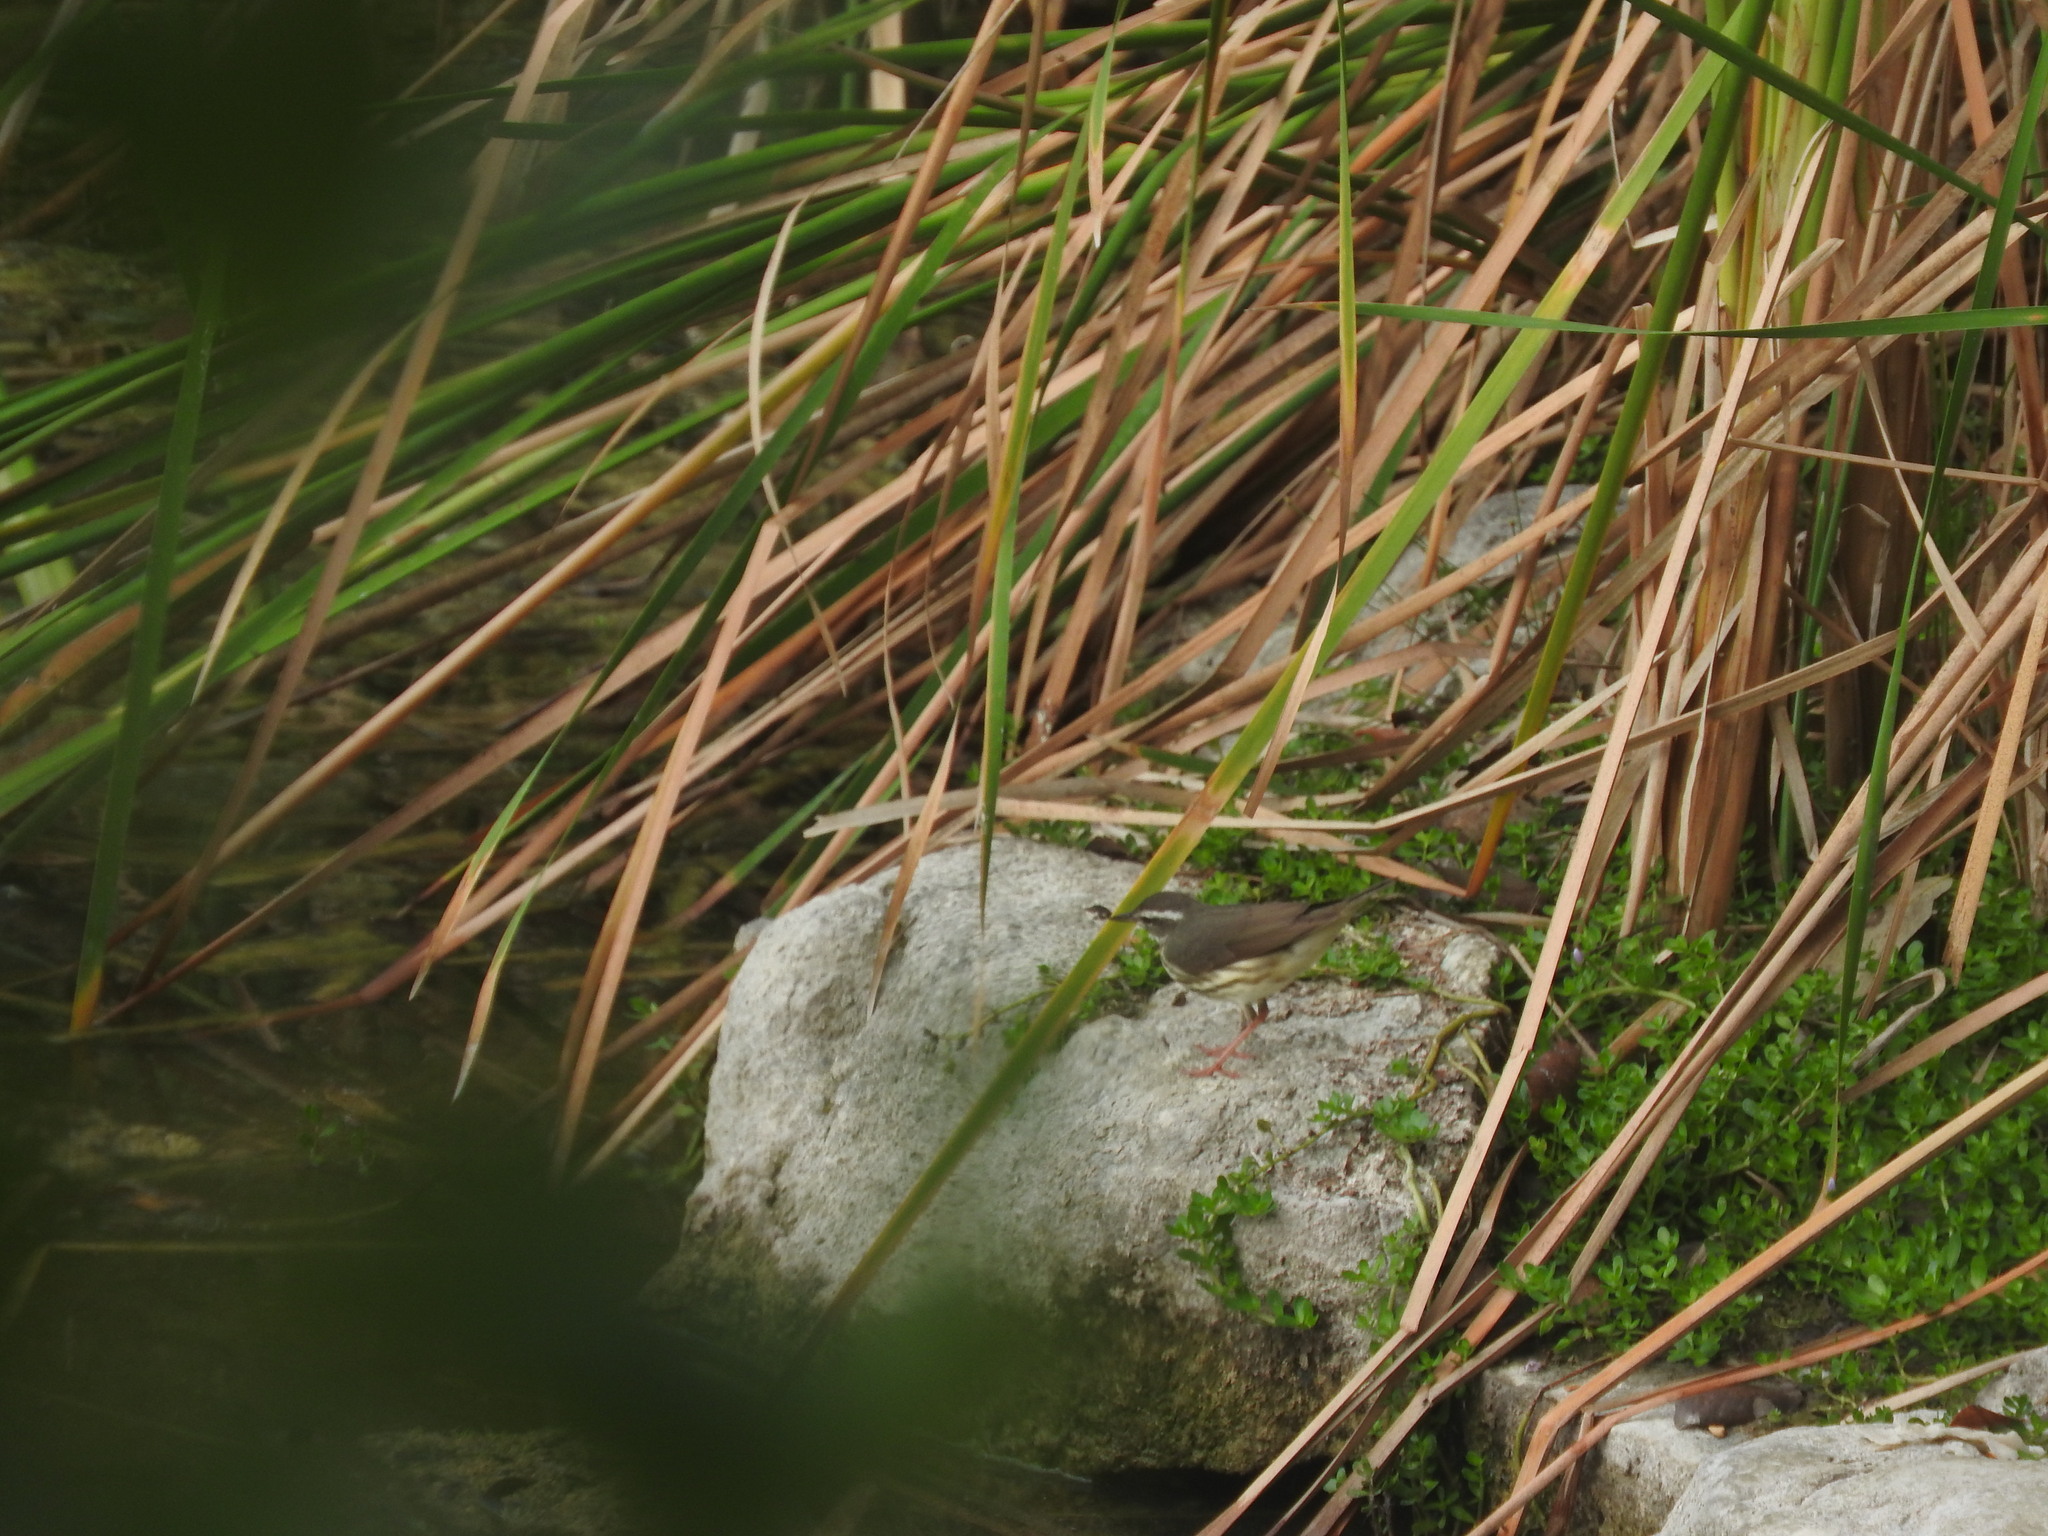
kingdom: Animalia
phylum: Chordata
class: Aves
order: Passeriformes
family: Parulidae
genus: Parkesia
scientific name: Parkesia motacilla
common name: Louisiana waterthrush
